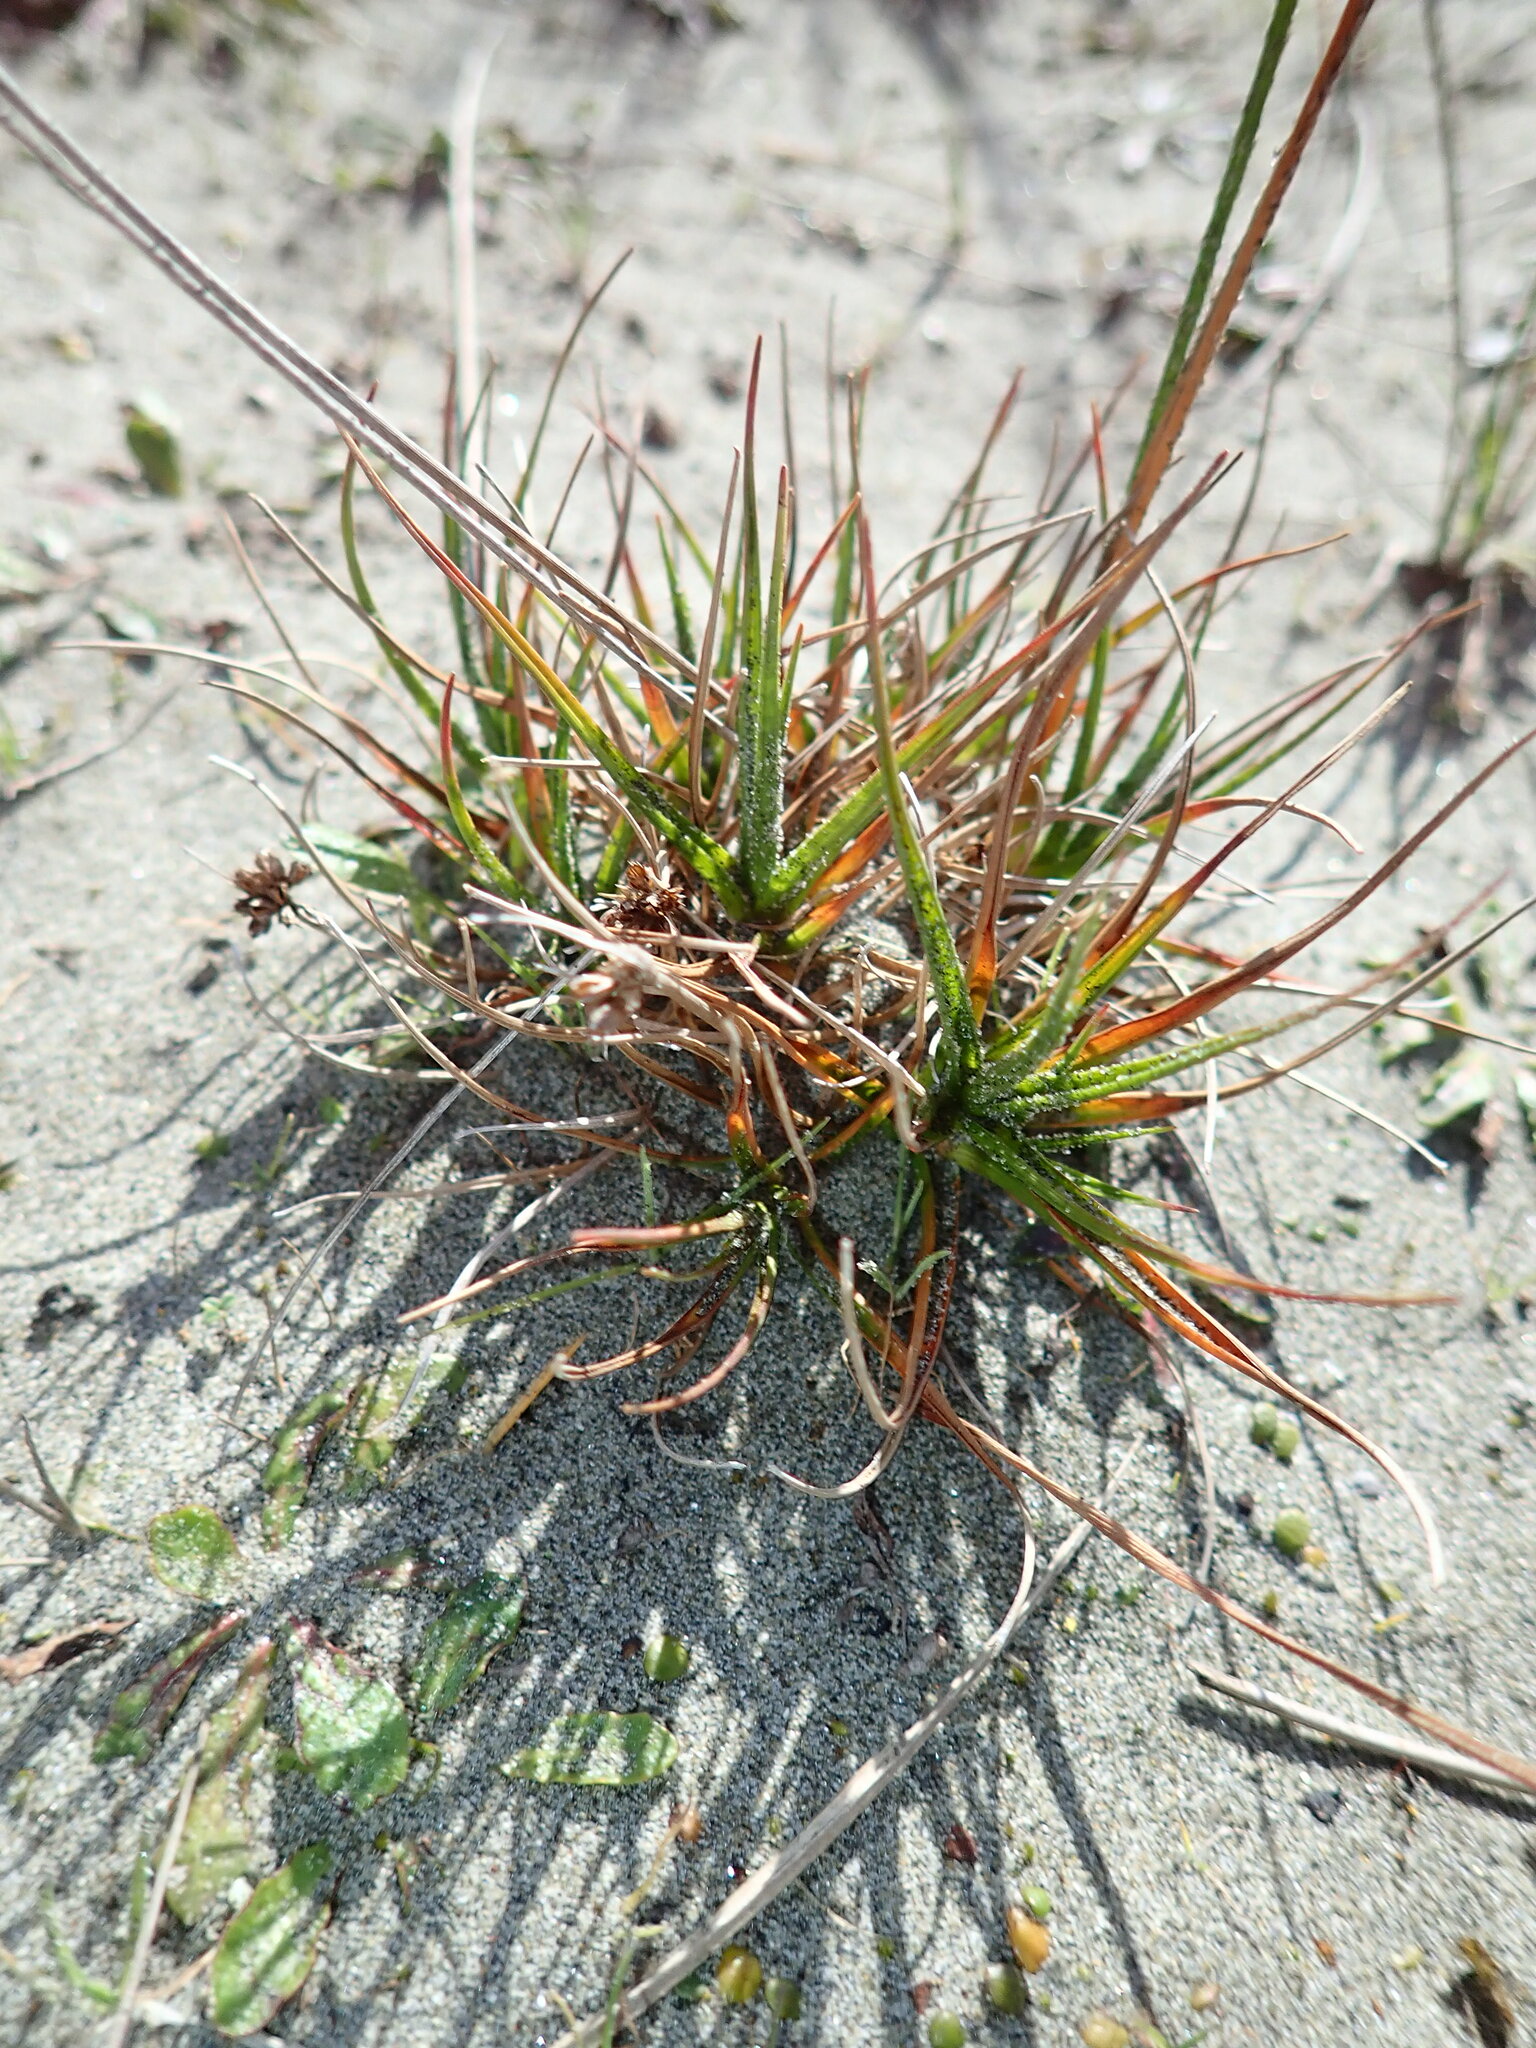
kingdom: Plantae
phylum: Tracheophyta
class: Liliopsida
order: Poales
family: Juncaceae
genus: Juncus
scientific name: Juncus caespiticius
